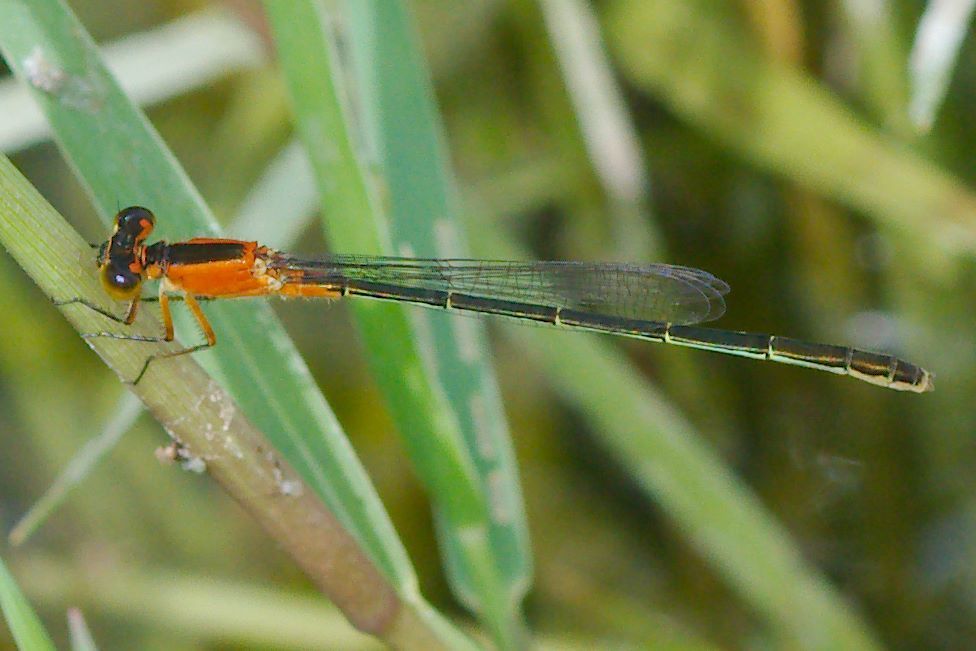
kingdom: Animalia
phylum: Arthropoda
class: Insecta
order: Odonata
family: Coenagrionidae
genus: Ischnura
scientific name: Ischnura ramburii
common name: Rambur's forktail
